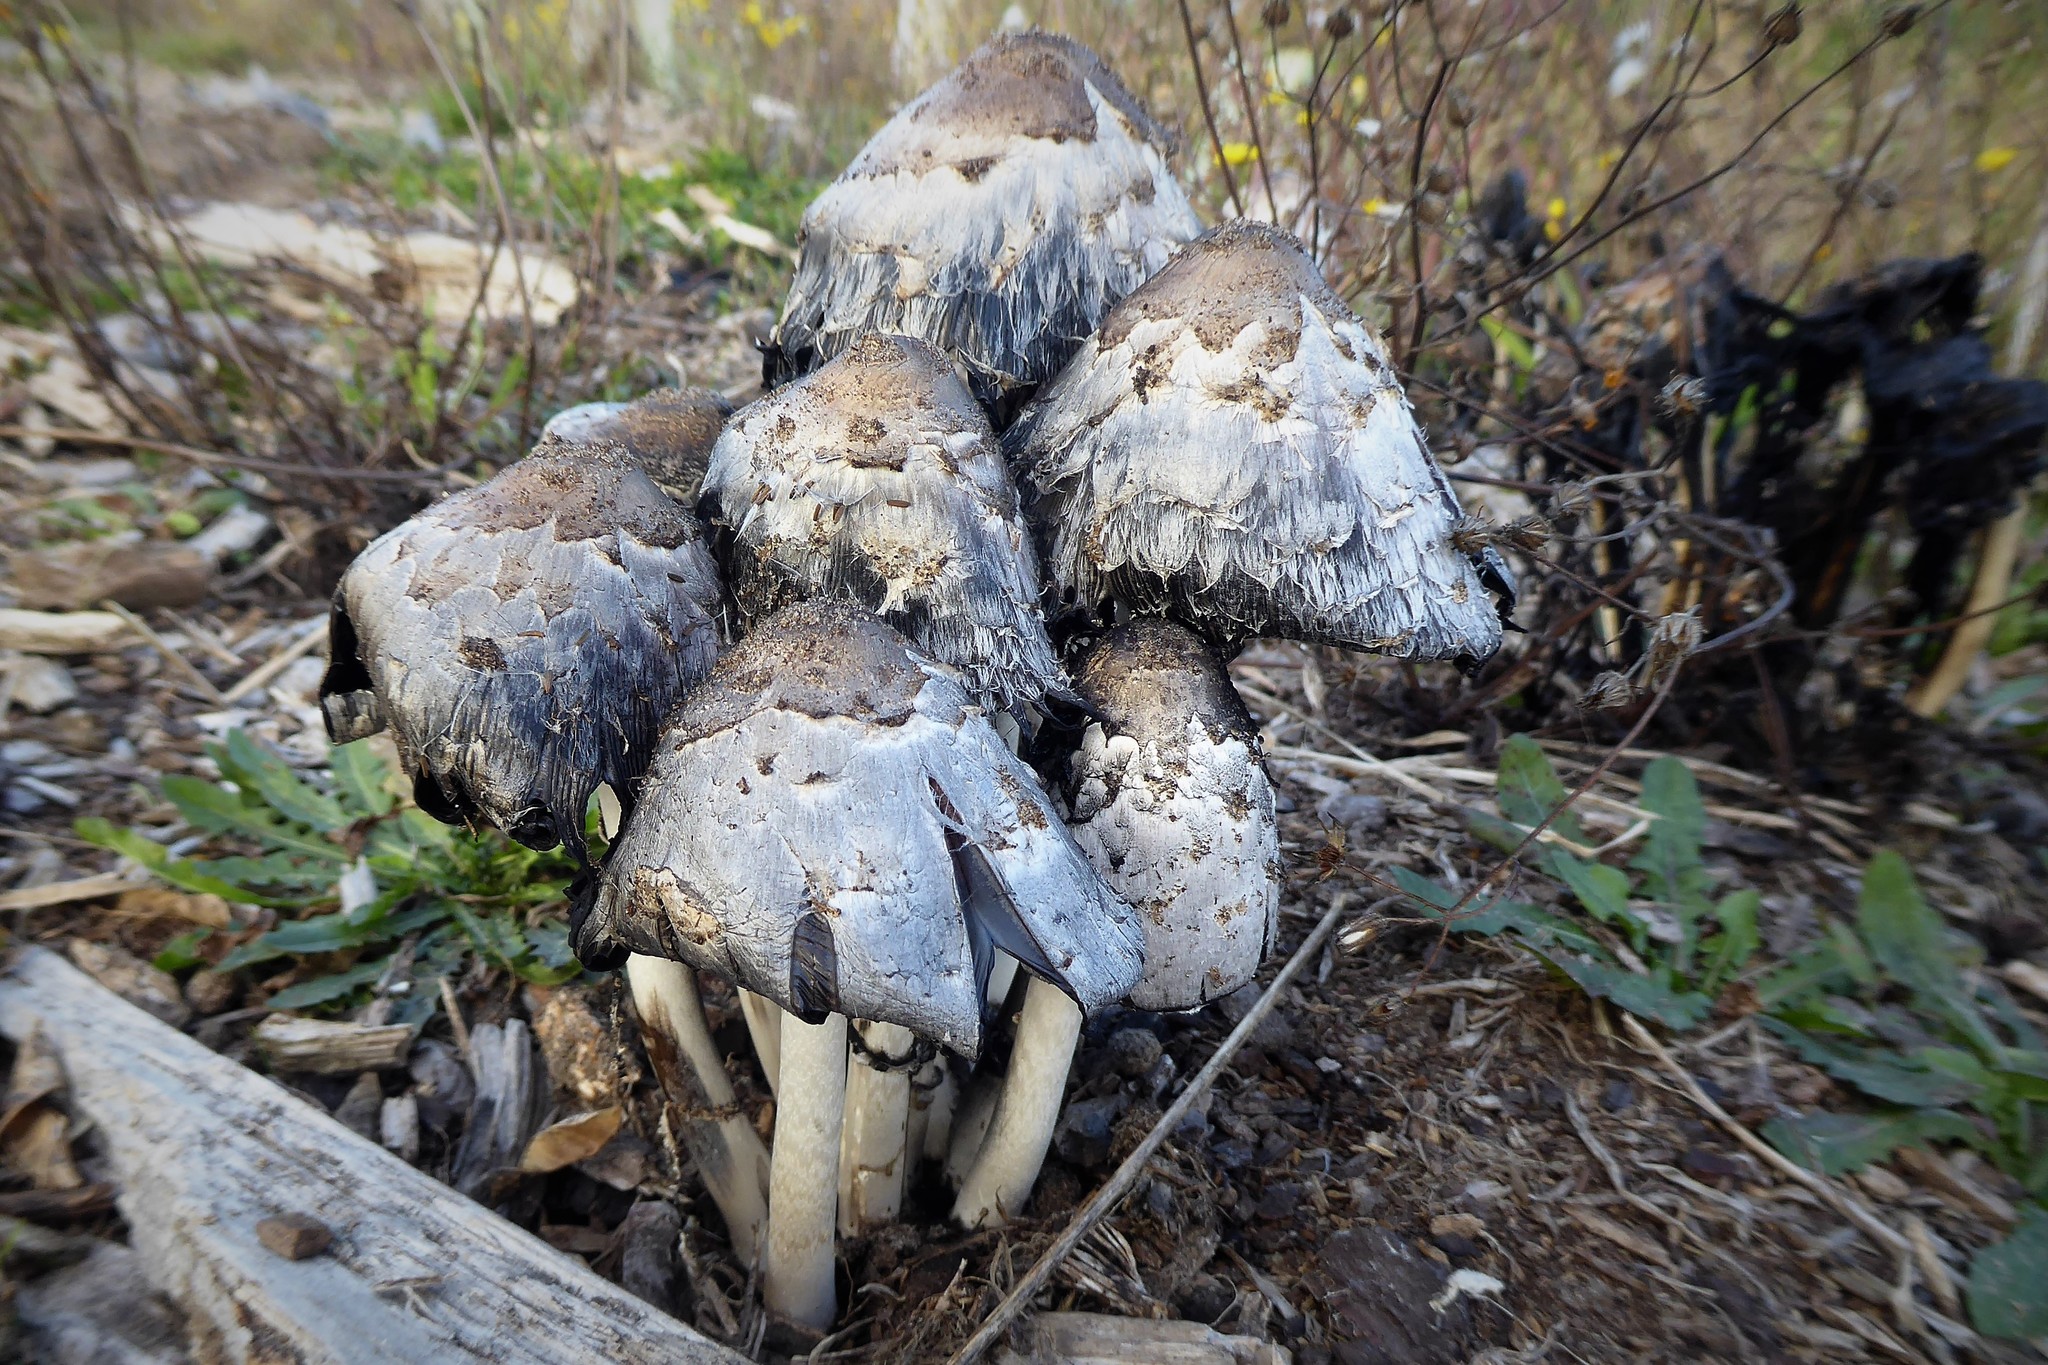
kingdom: Fungi
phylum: Basidiomycota
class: Agaricomycetes
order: Agaricales
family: Agaricaceae
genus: Coprinus
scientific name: Coprinus comatus
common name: Lawyer's wig
